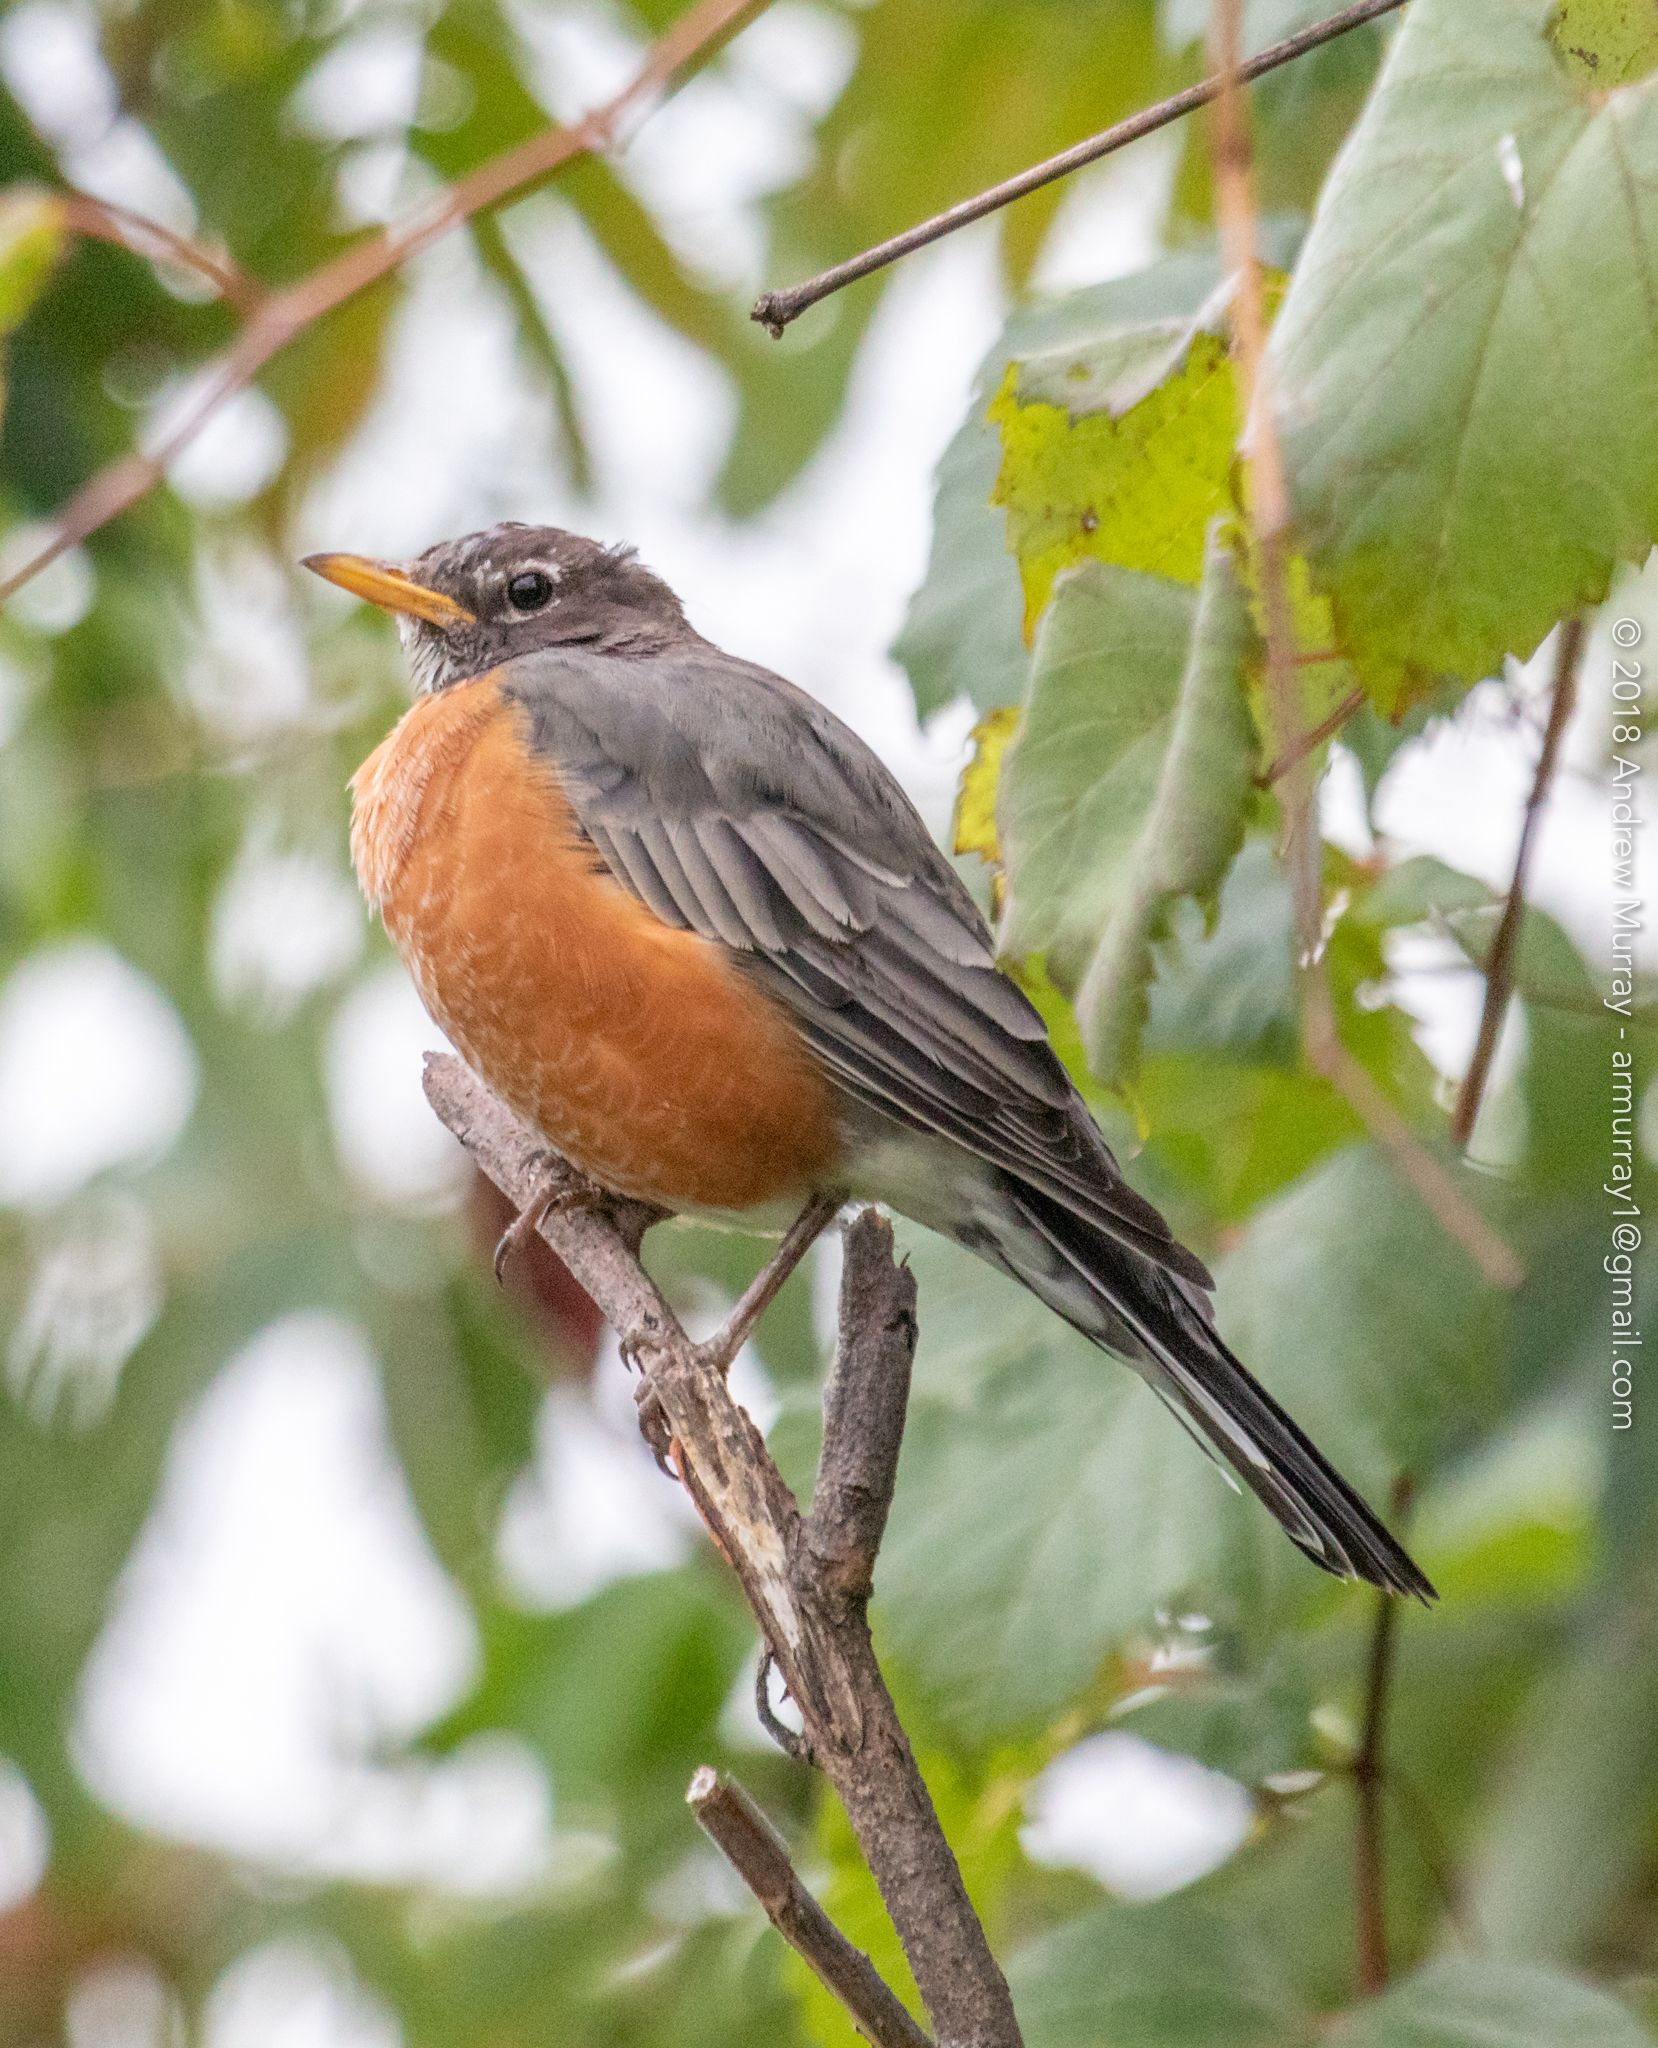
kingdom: Animalia
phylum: Chordata
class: Aves
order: Passeriformes
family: Turdidae
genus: Turdus
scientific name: Turdus migratorius
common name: American robin
